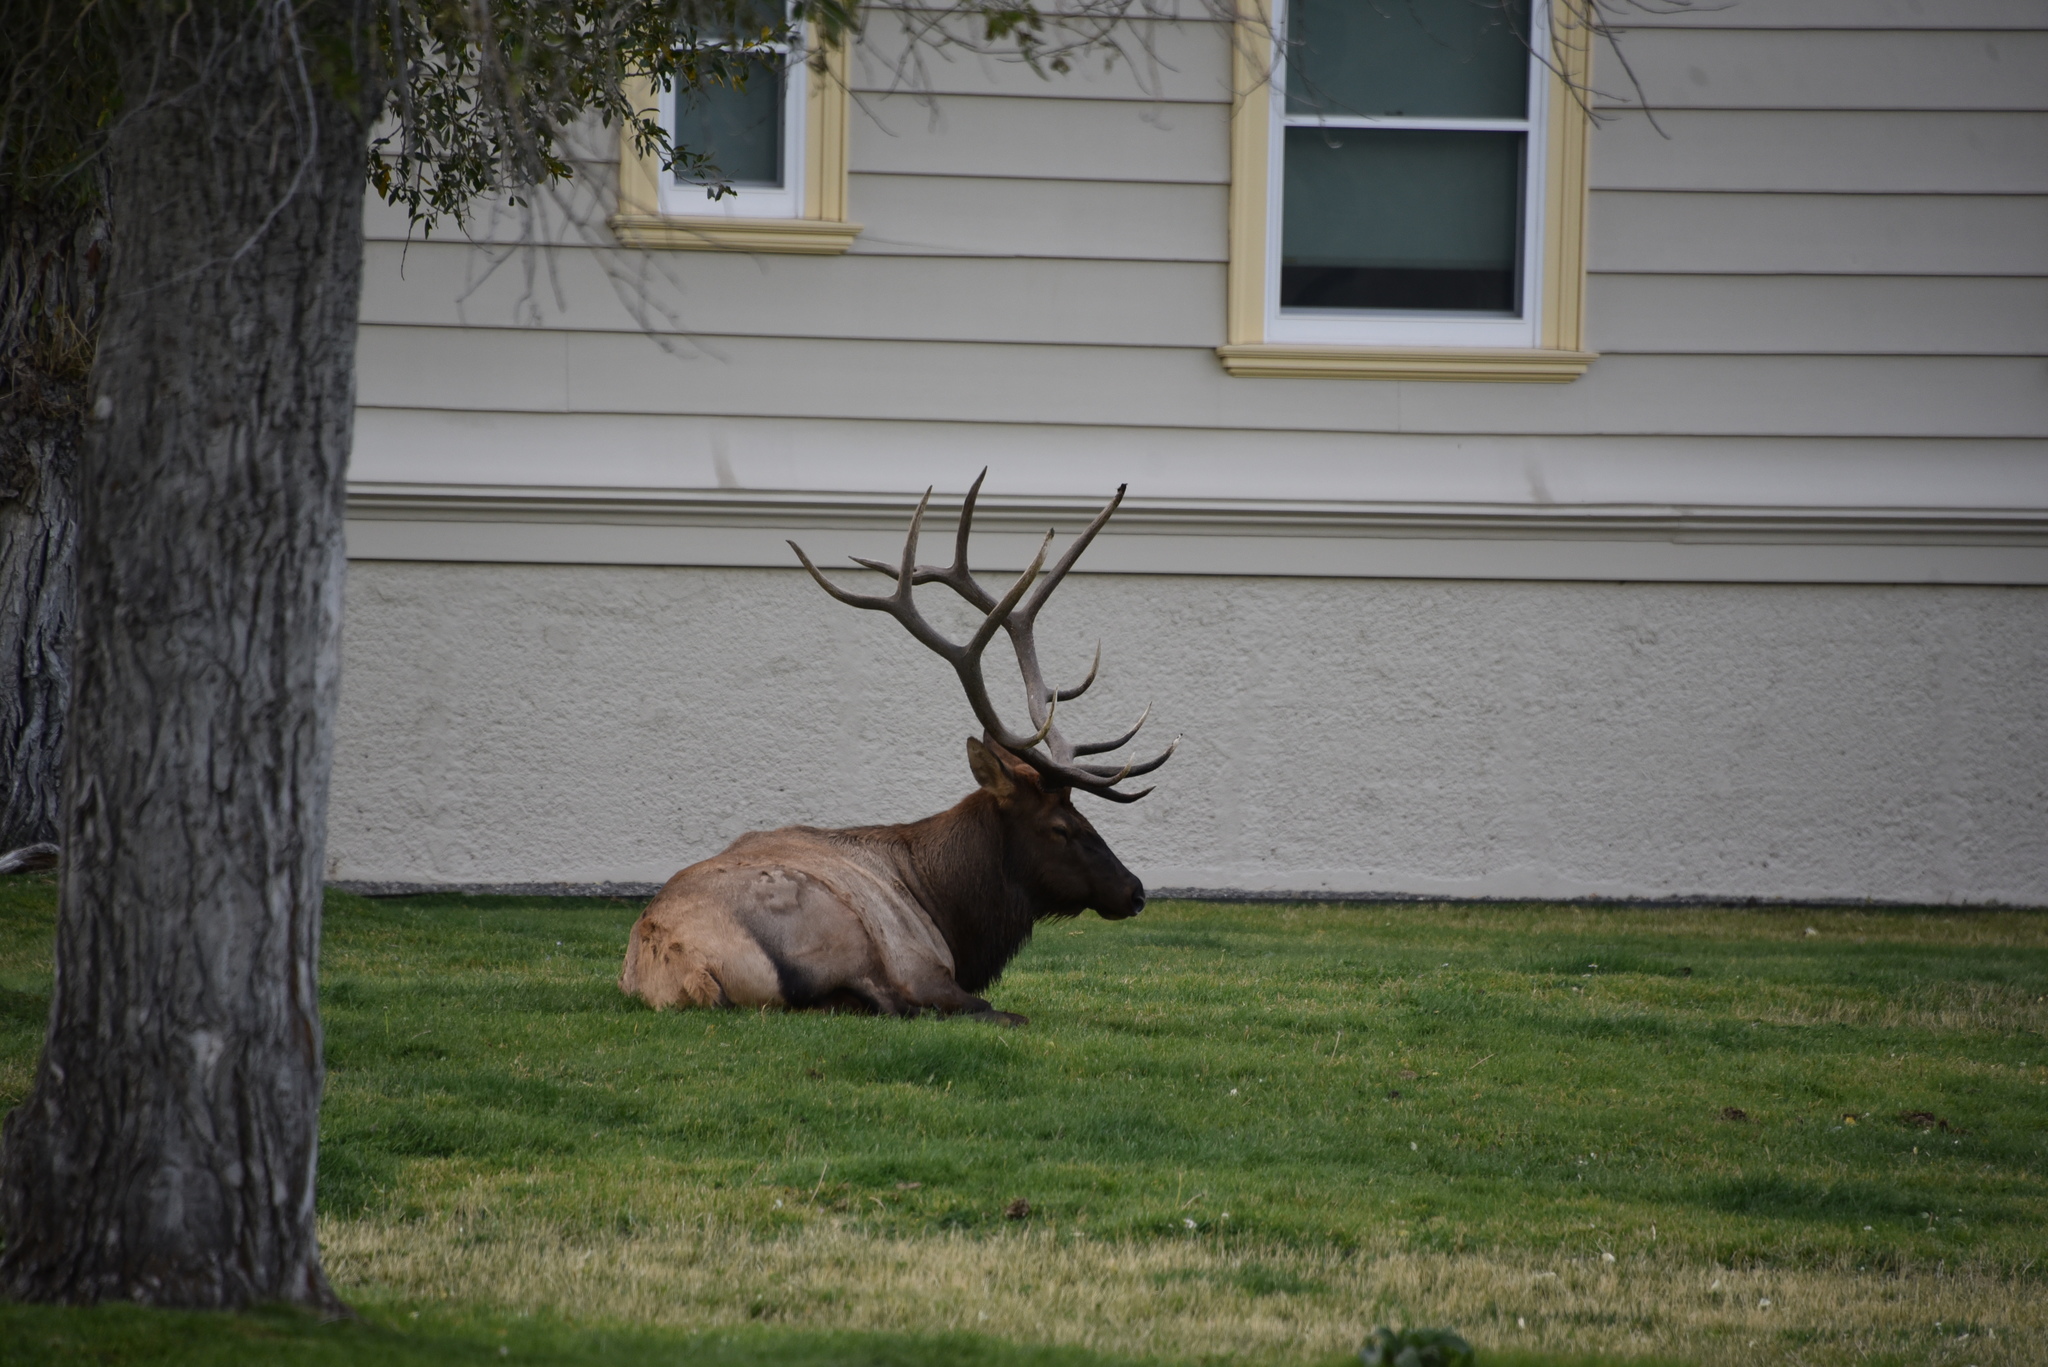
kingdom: Animalia
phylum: Chordata
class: Mammalia
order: Artiodactyla
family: Cervidae
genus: Cervus
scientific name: Cervus elaphus
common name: Red deer
